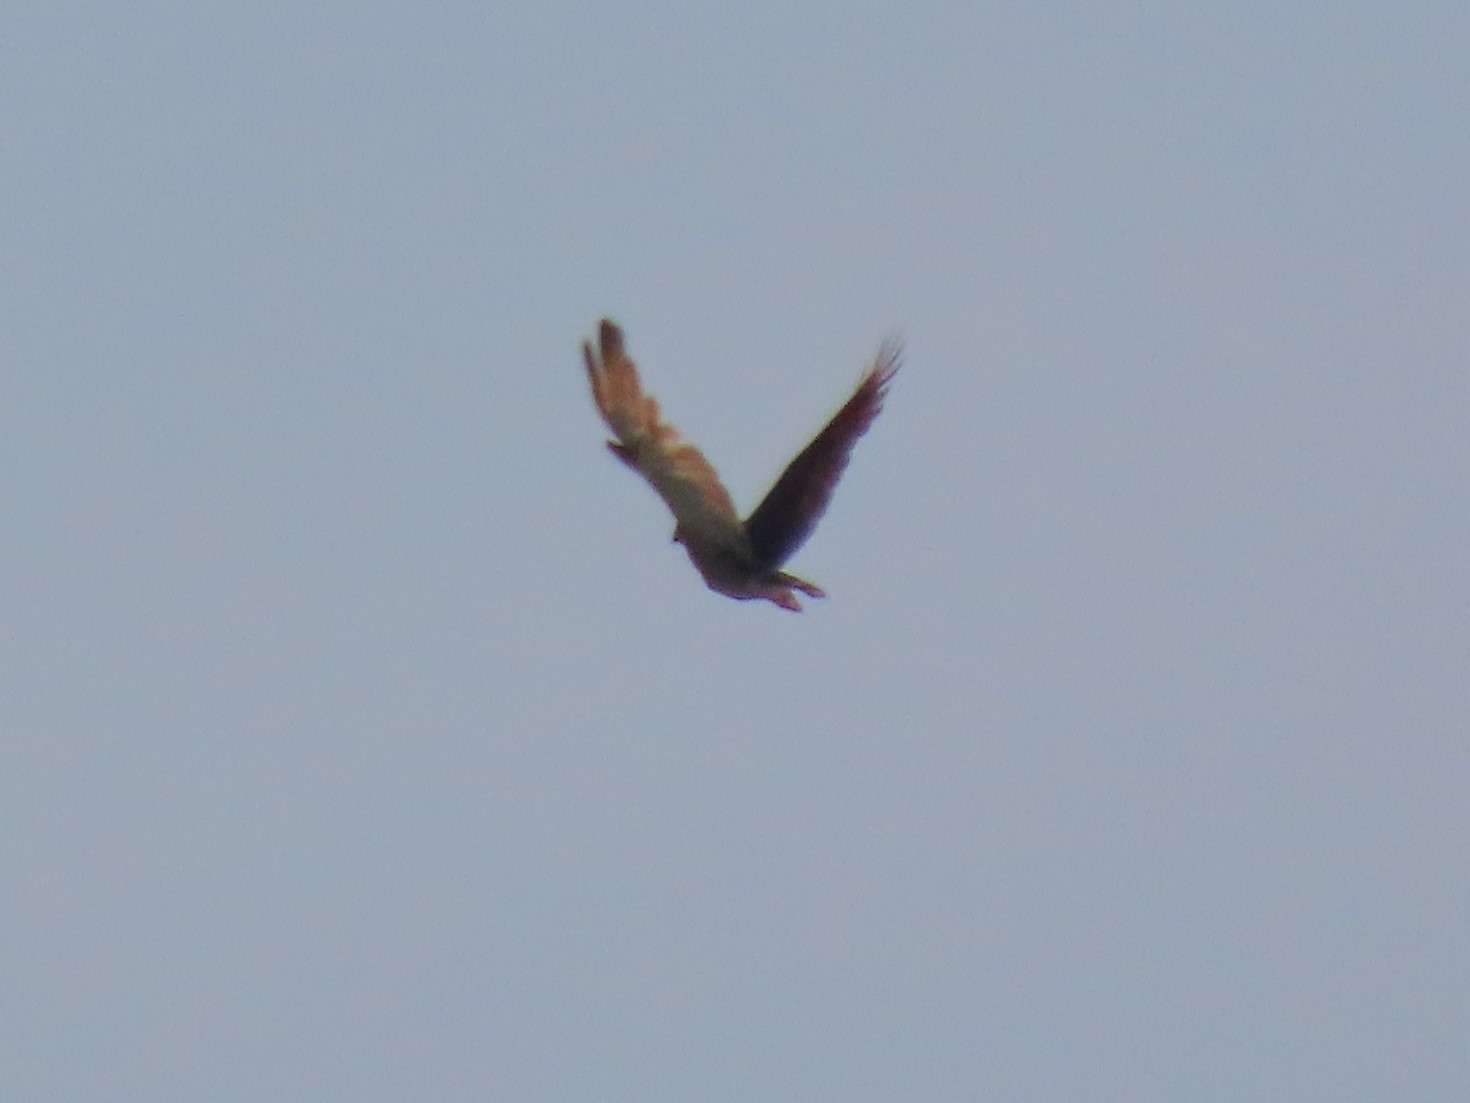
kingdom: Animalia
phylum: Chordata
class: Aves
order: Accipitriformes
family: Accipitridae
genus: Rupornis
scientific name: Rupornis magnirostris
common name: Roadside hawk
